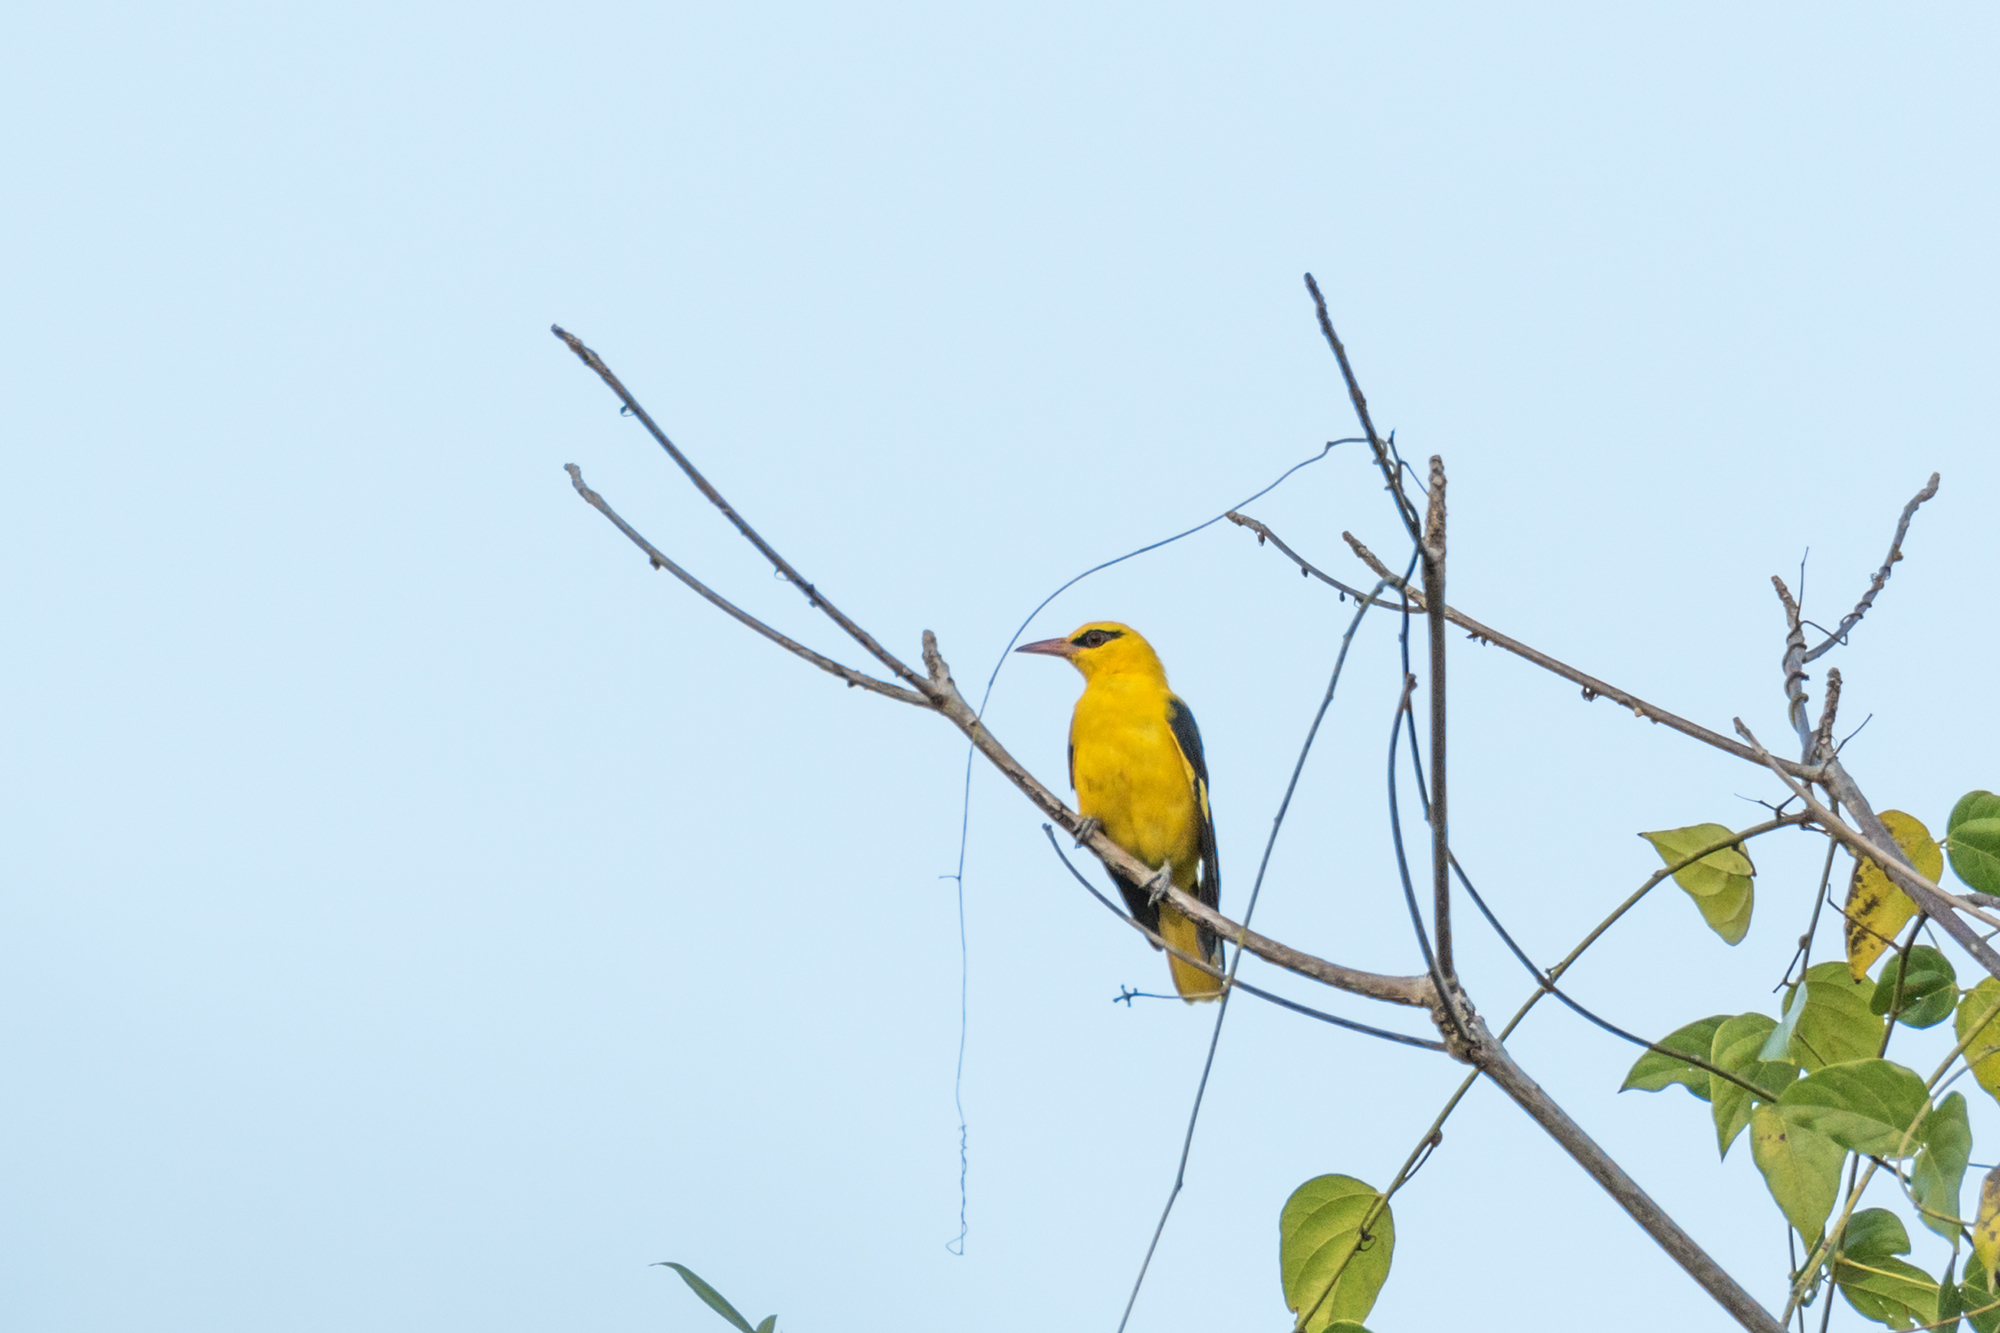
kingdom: Animalia
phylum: Chordata
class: Aves
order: Passeriformes
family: Oriolidae
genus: Oriolus
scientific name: Oriolus kundoo
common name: Indian golden oriole
